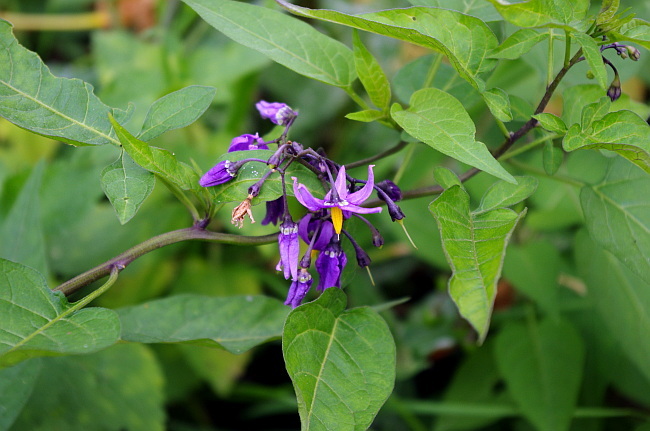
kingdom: Plantae
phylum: Tracheophyta
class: Magnoliopsida
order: Solanales
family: Solanaceae
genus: Solanum
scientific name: Solanum dulcamara
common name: Climbing nightshade
